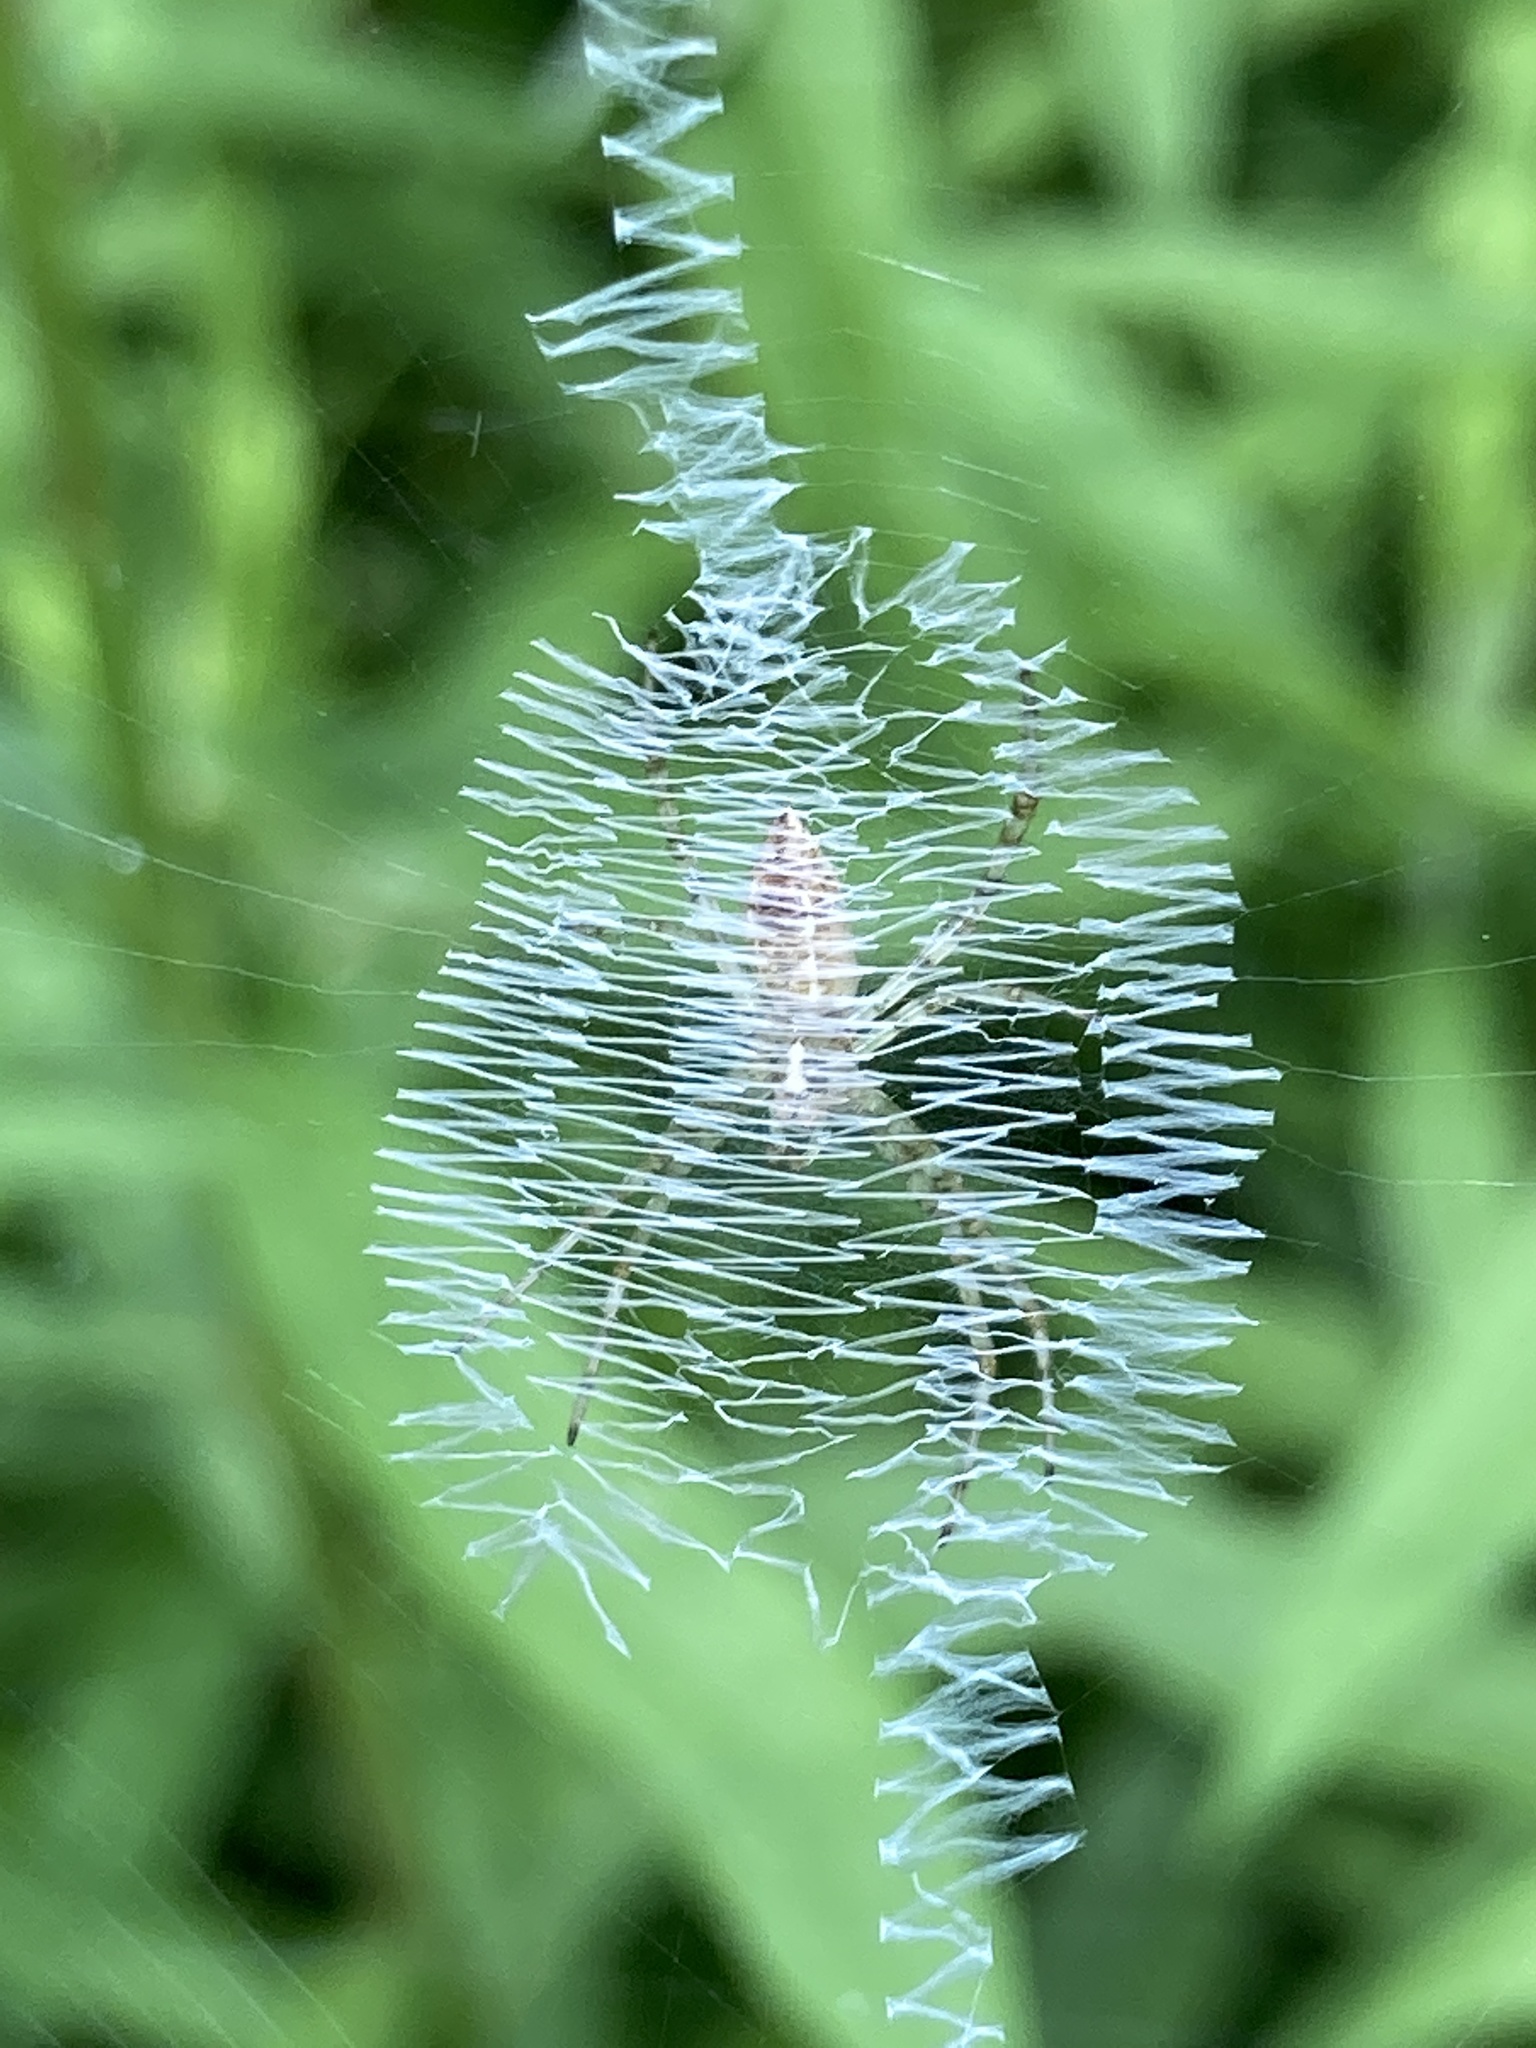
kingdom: Animalia
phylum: Arthropoda
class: Arachnida
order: Araneae
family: Araneidae
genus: Argiope
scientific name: Argiope aurantia
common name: Orb weavers
